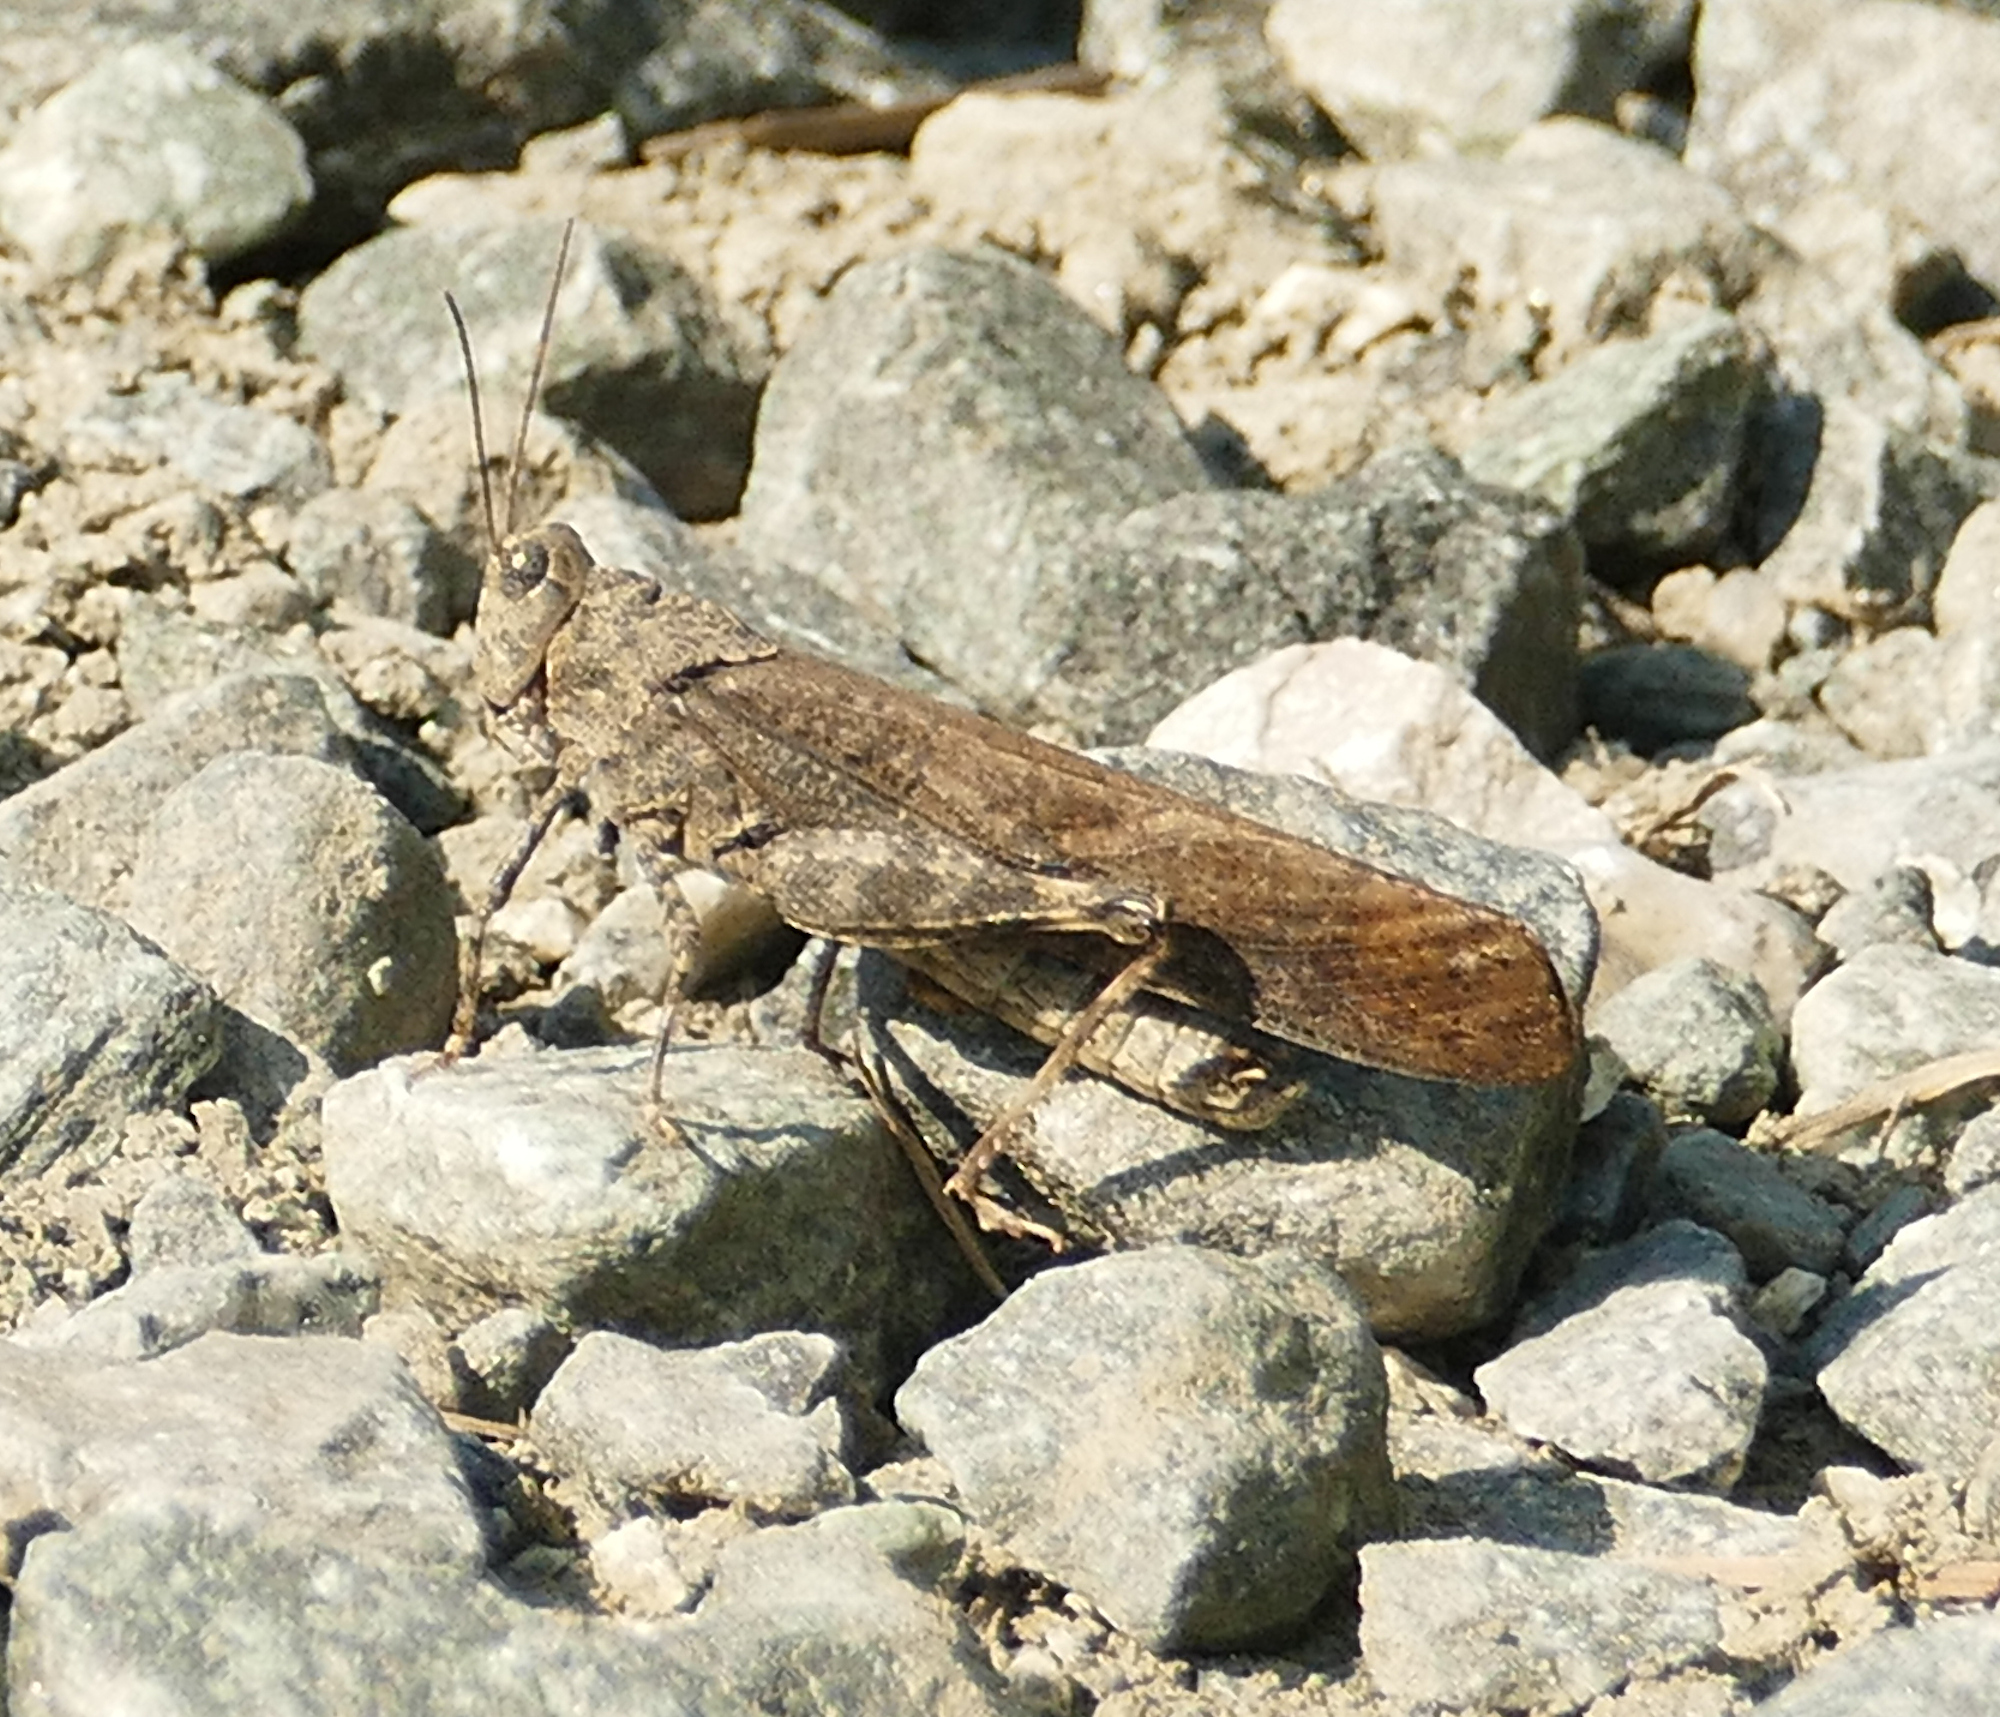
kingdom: Animalia
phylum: Arthropoda
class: Insecta
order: Orthoptera
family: Acrididae
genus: Dissosteira
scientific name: Dissosteira carolina
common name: Carolina grasshopper
